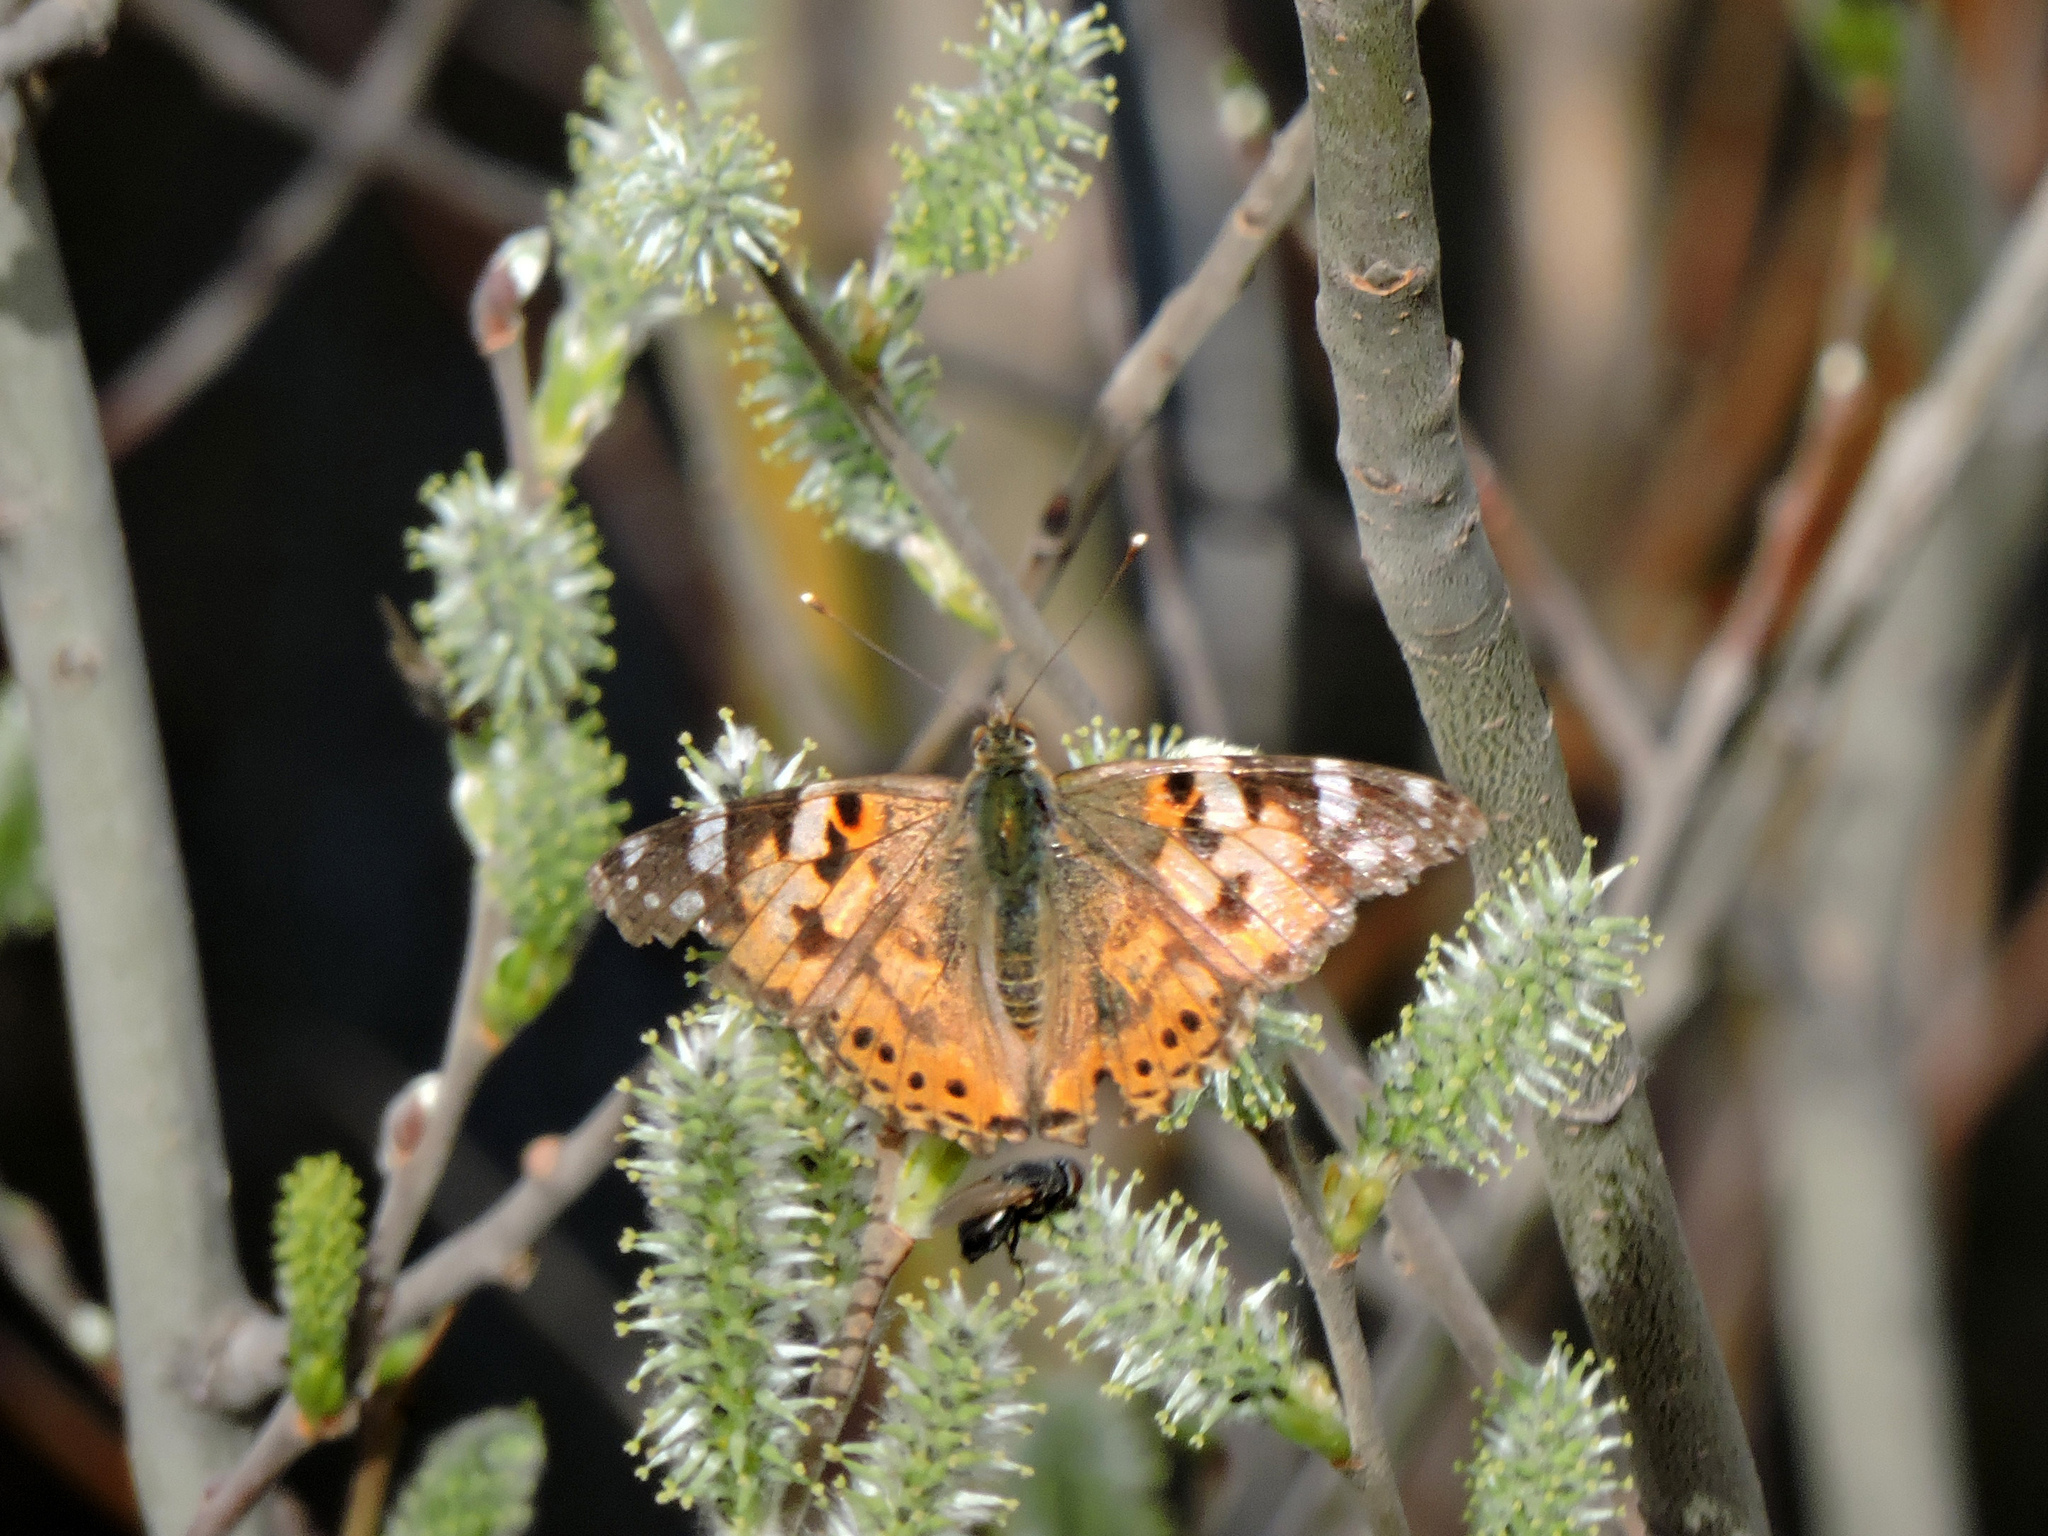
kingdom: Animalia
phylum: Arthropoda
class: Insecta
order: Lepidoptera
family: Nymphalidae
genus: Vanessa
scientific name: Vanessa cardui
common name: Painted lady
